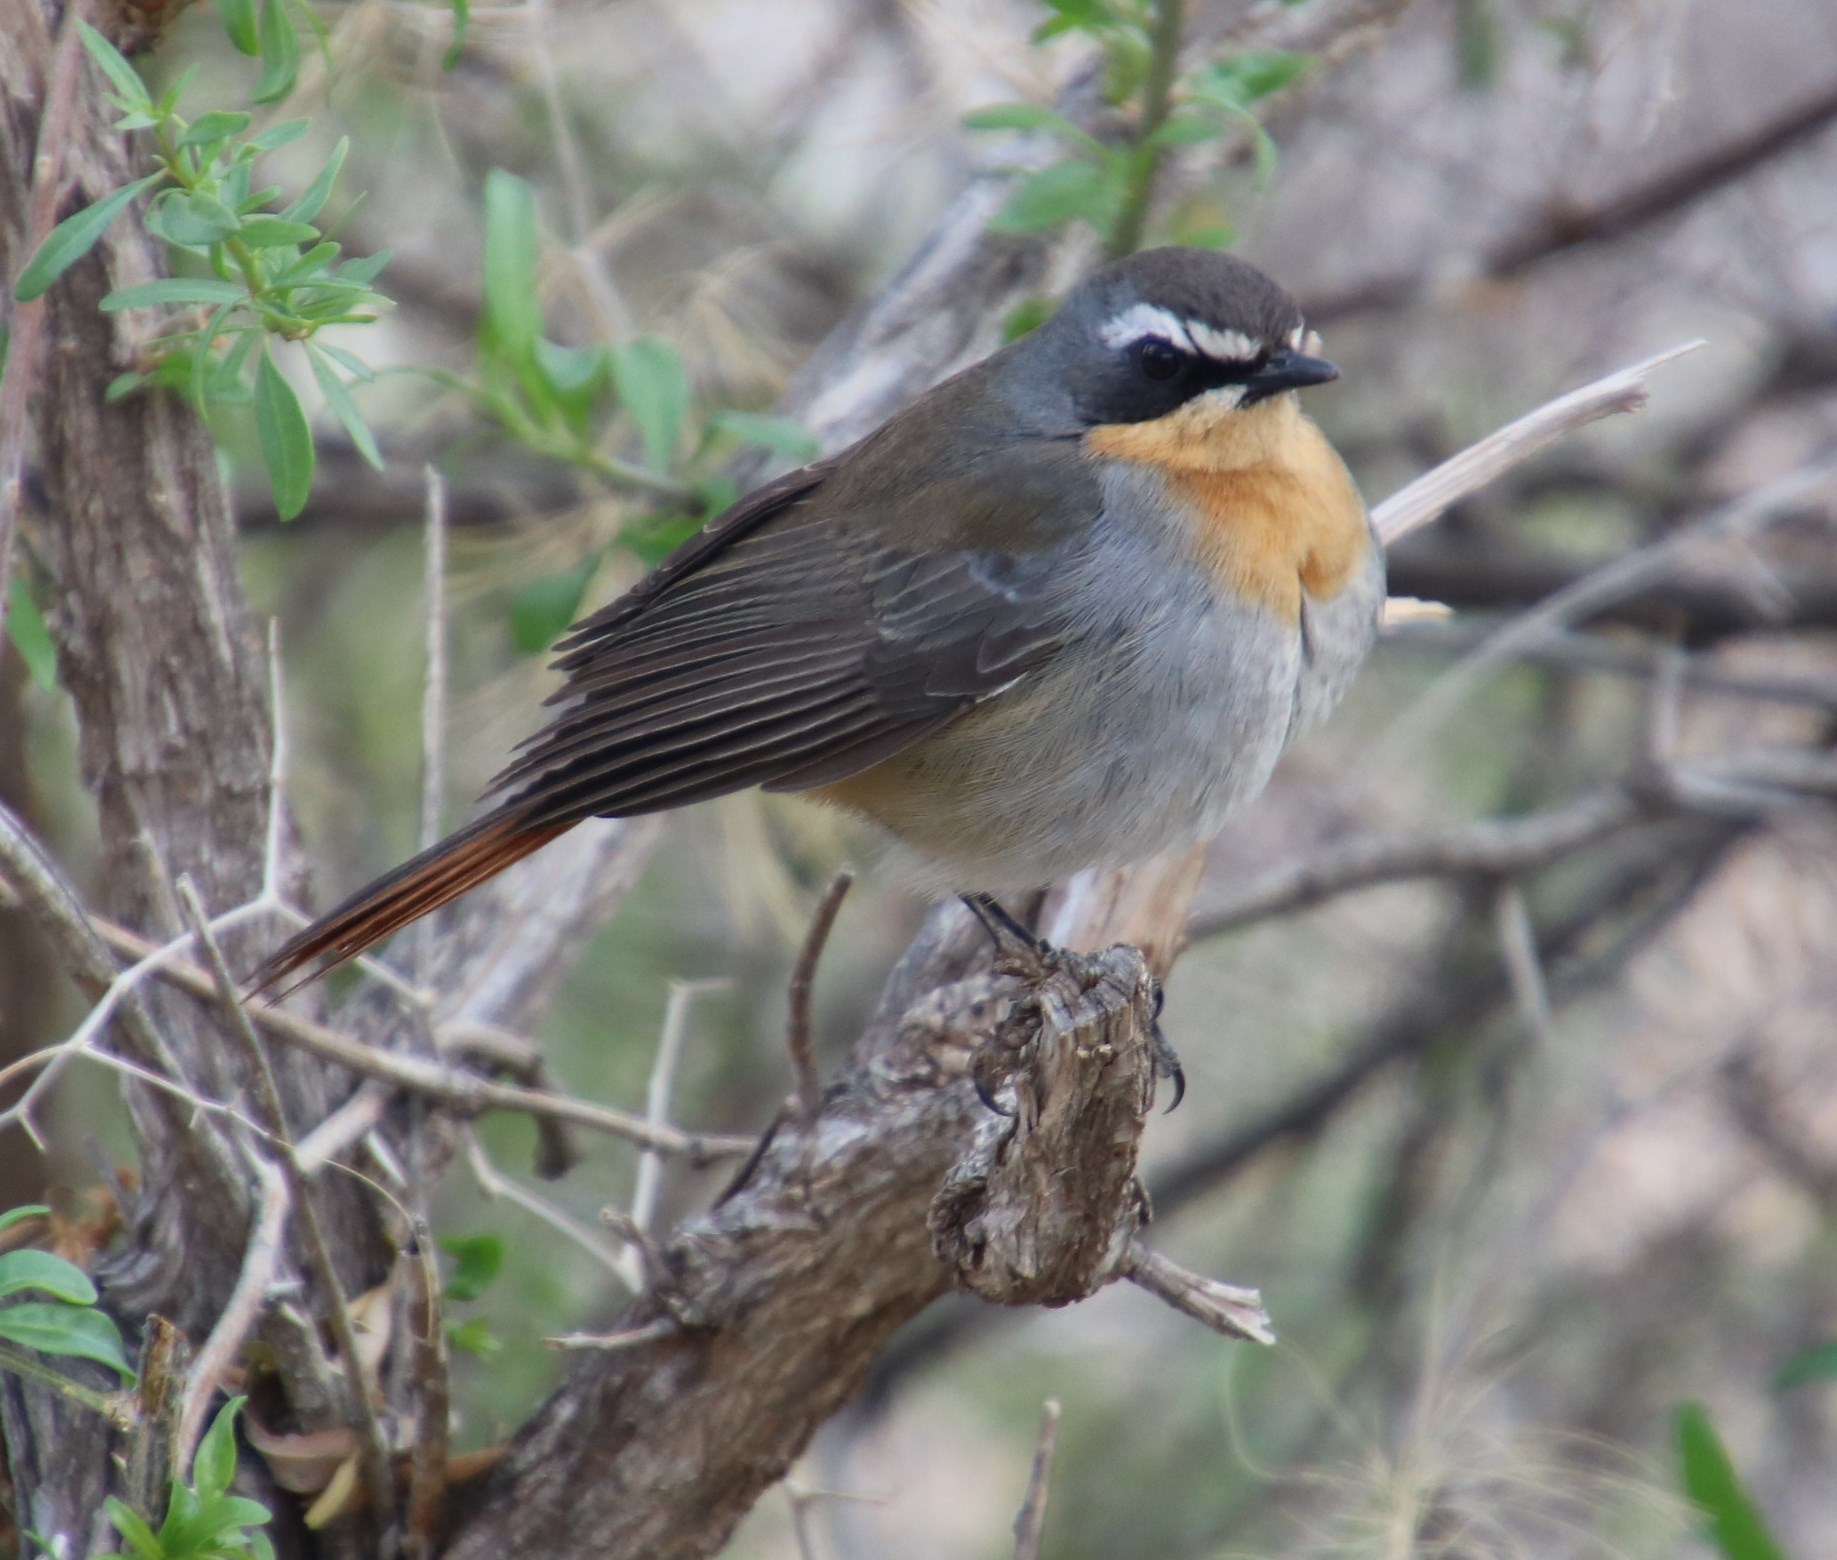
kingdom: Animalia
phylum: Chordata
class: Aves
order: Passeriformes
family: Muscicapidae
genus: Cossypha
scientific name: Cossypha caffra
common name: Cape robin-chat
